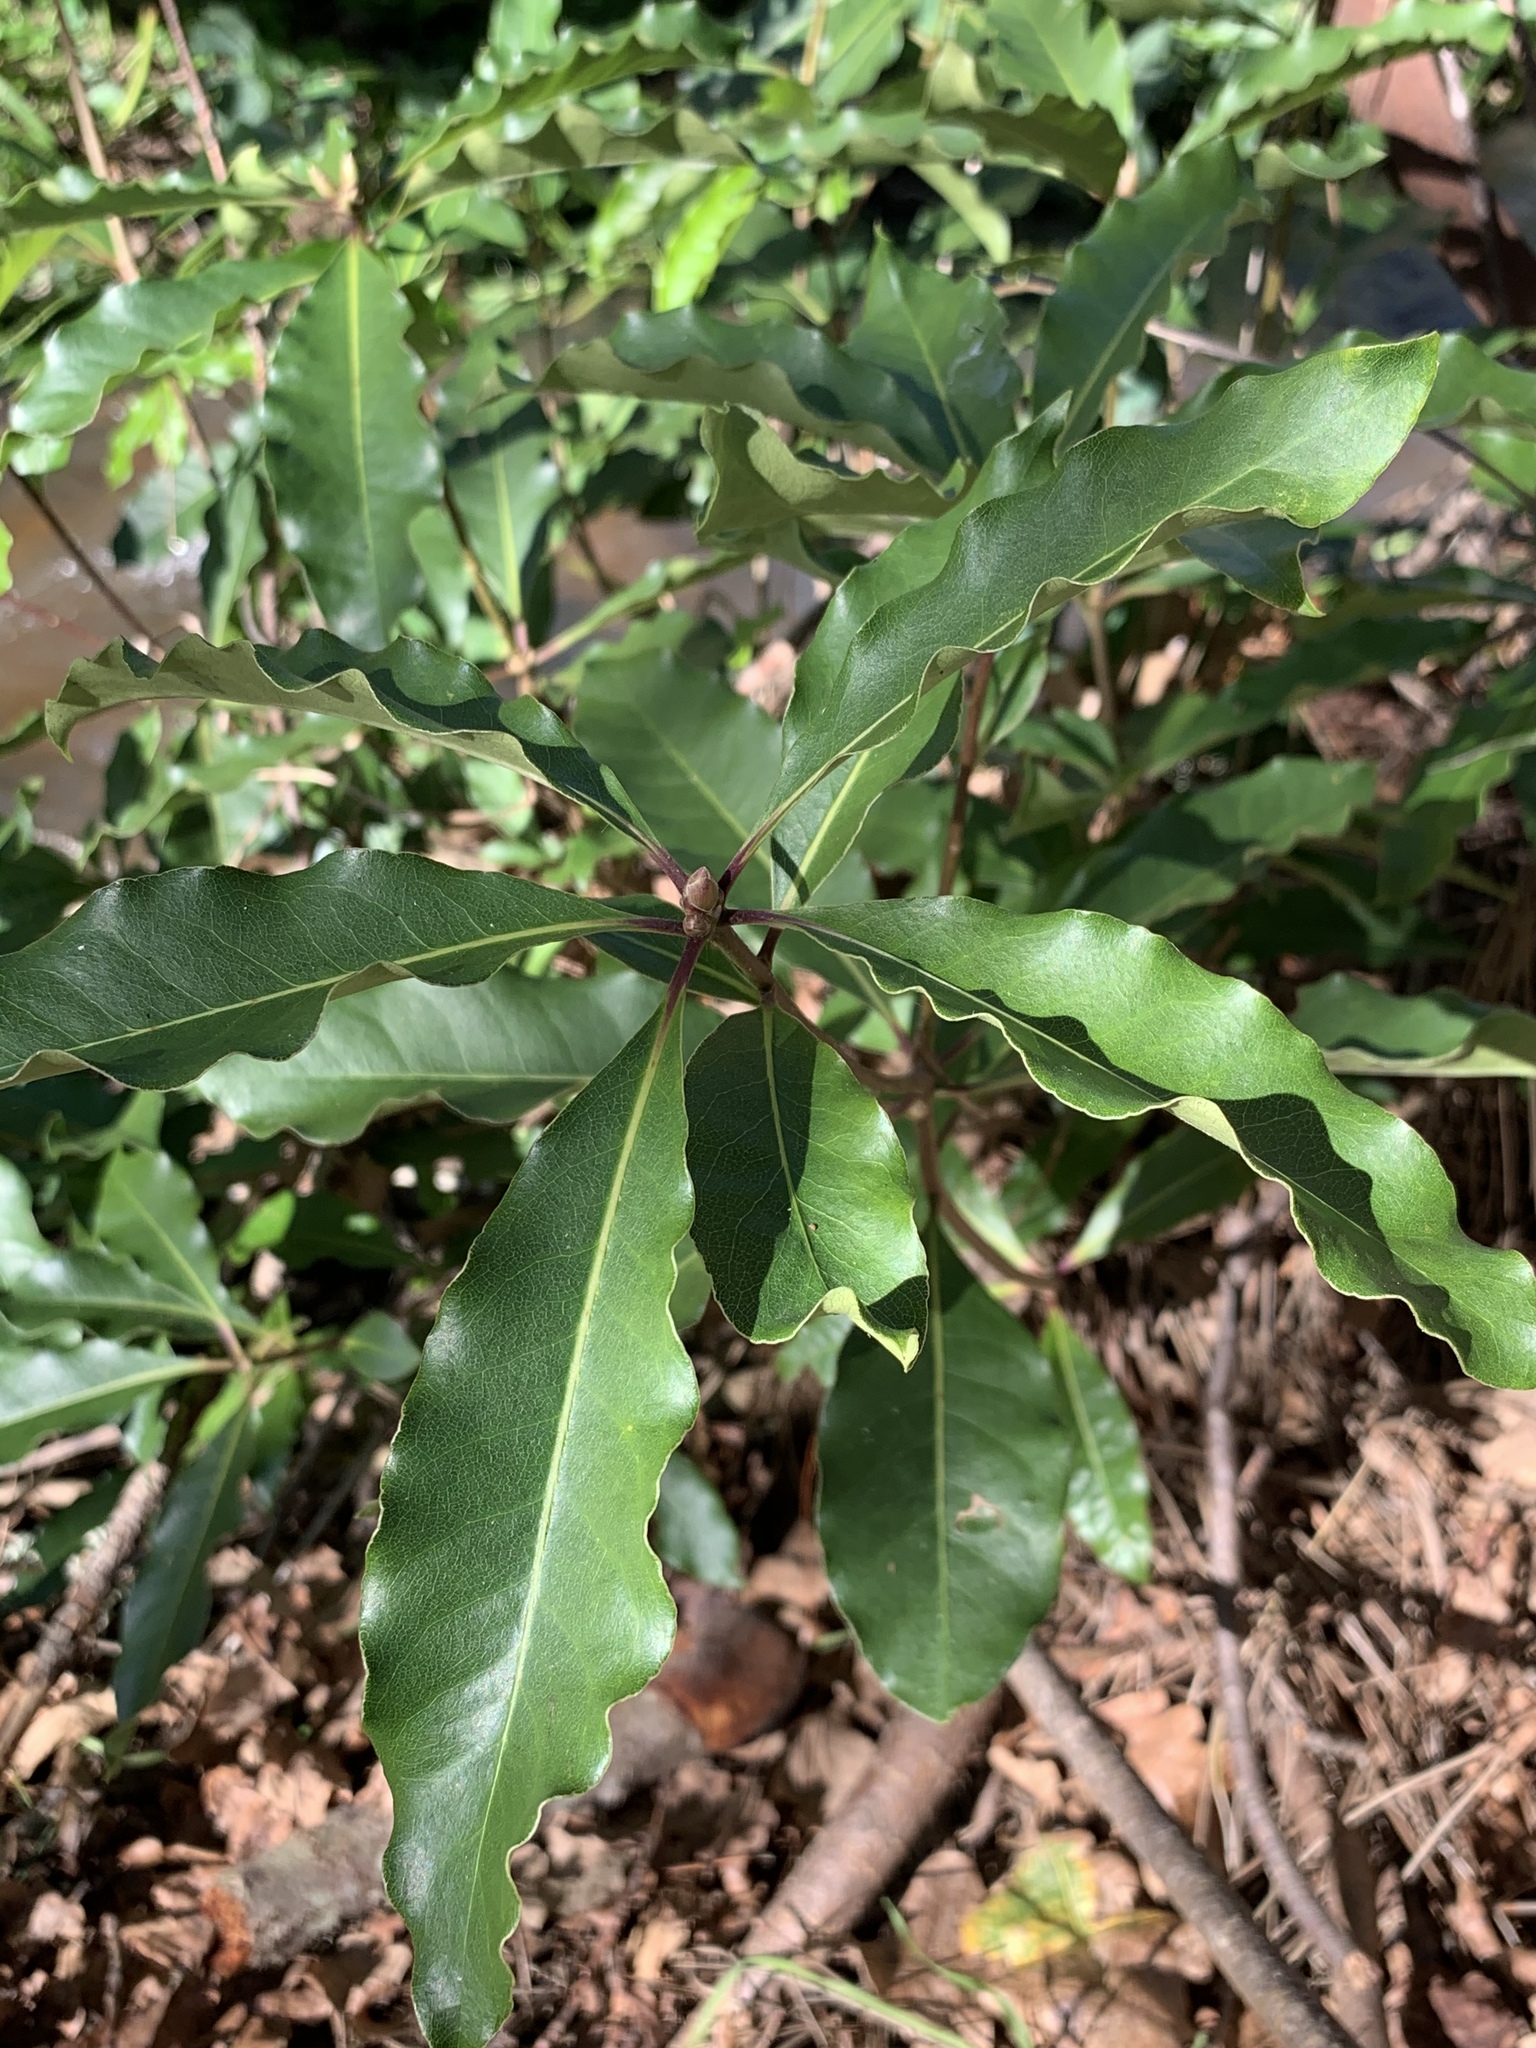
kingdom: Plantae
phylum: Tracheophyta
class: Magnoliopsida
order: Apiales
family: Pittosporaceae
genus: Pittosporum
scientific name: Pittosporum undulatum
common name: Australian cheesewood
